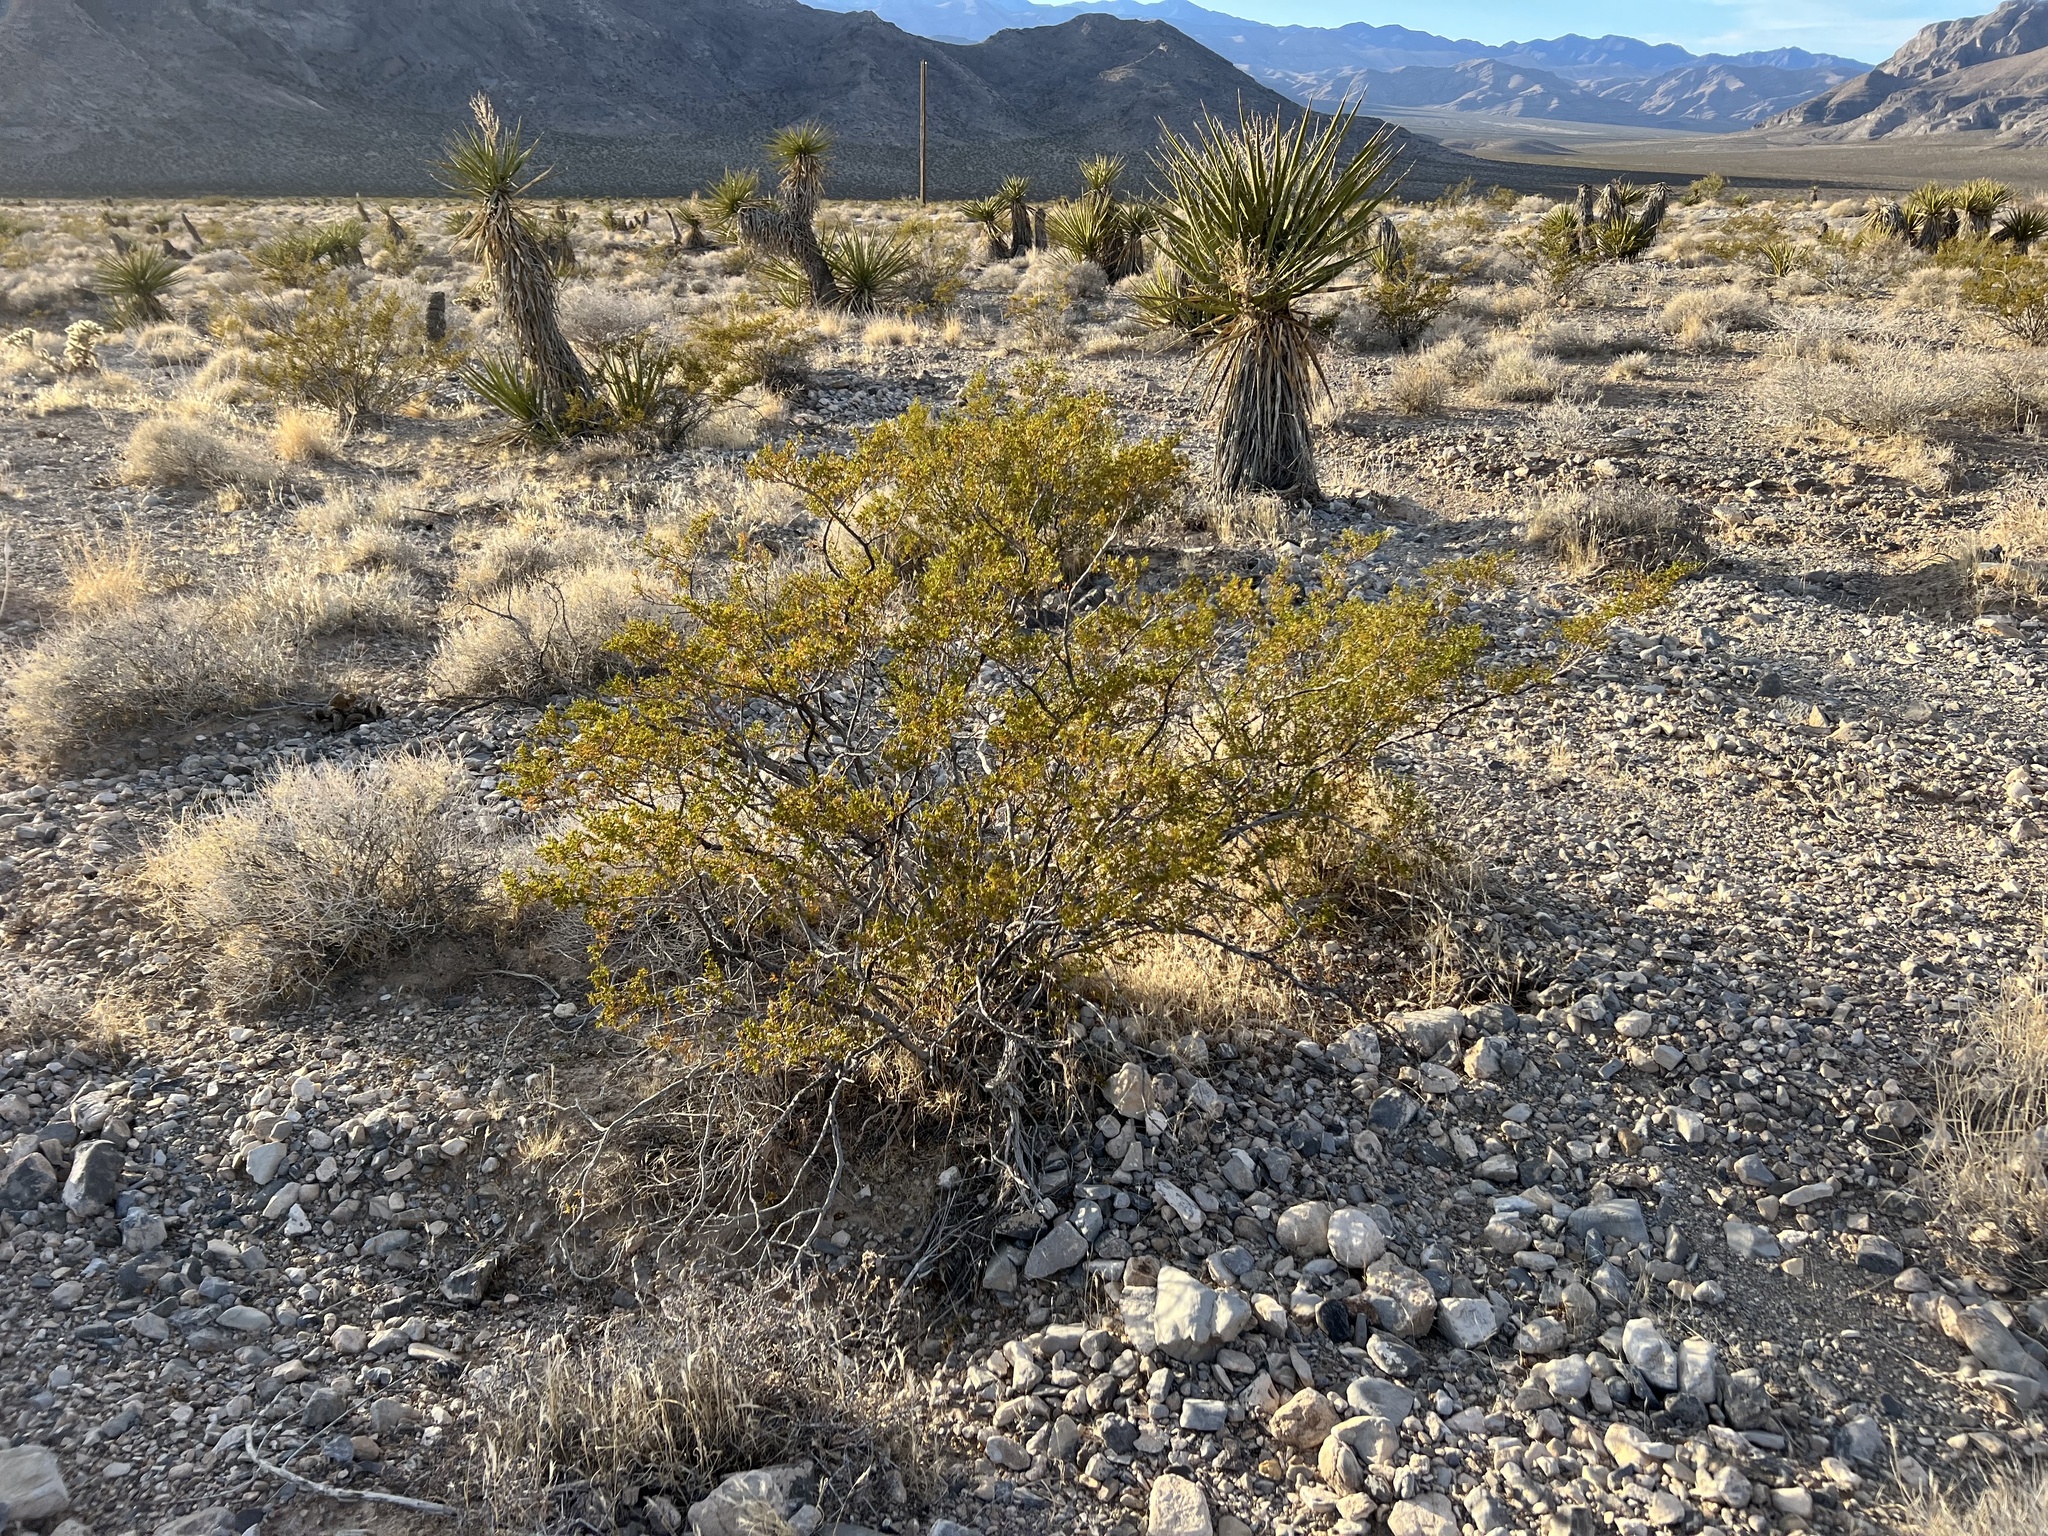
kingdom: Plantae
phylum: Tracheophyta
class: Magnoliopsida
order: Zygophyllales
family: Zygophyllaceae
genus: Larrea
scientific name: Larrea tridentata
